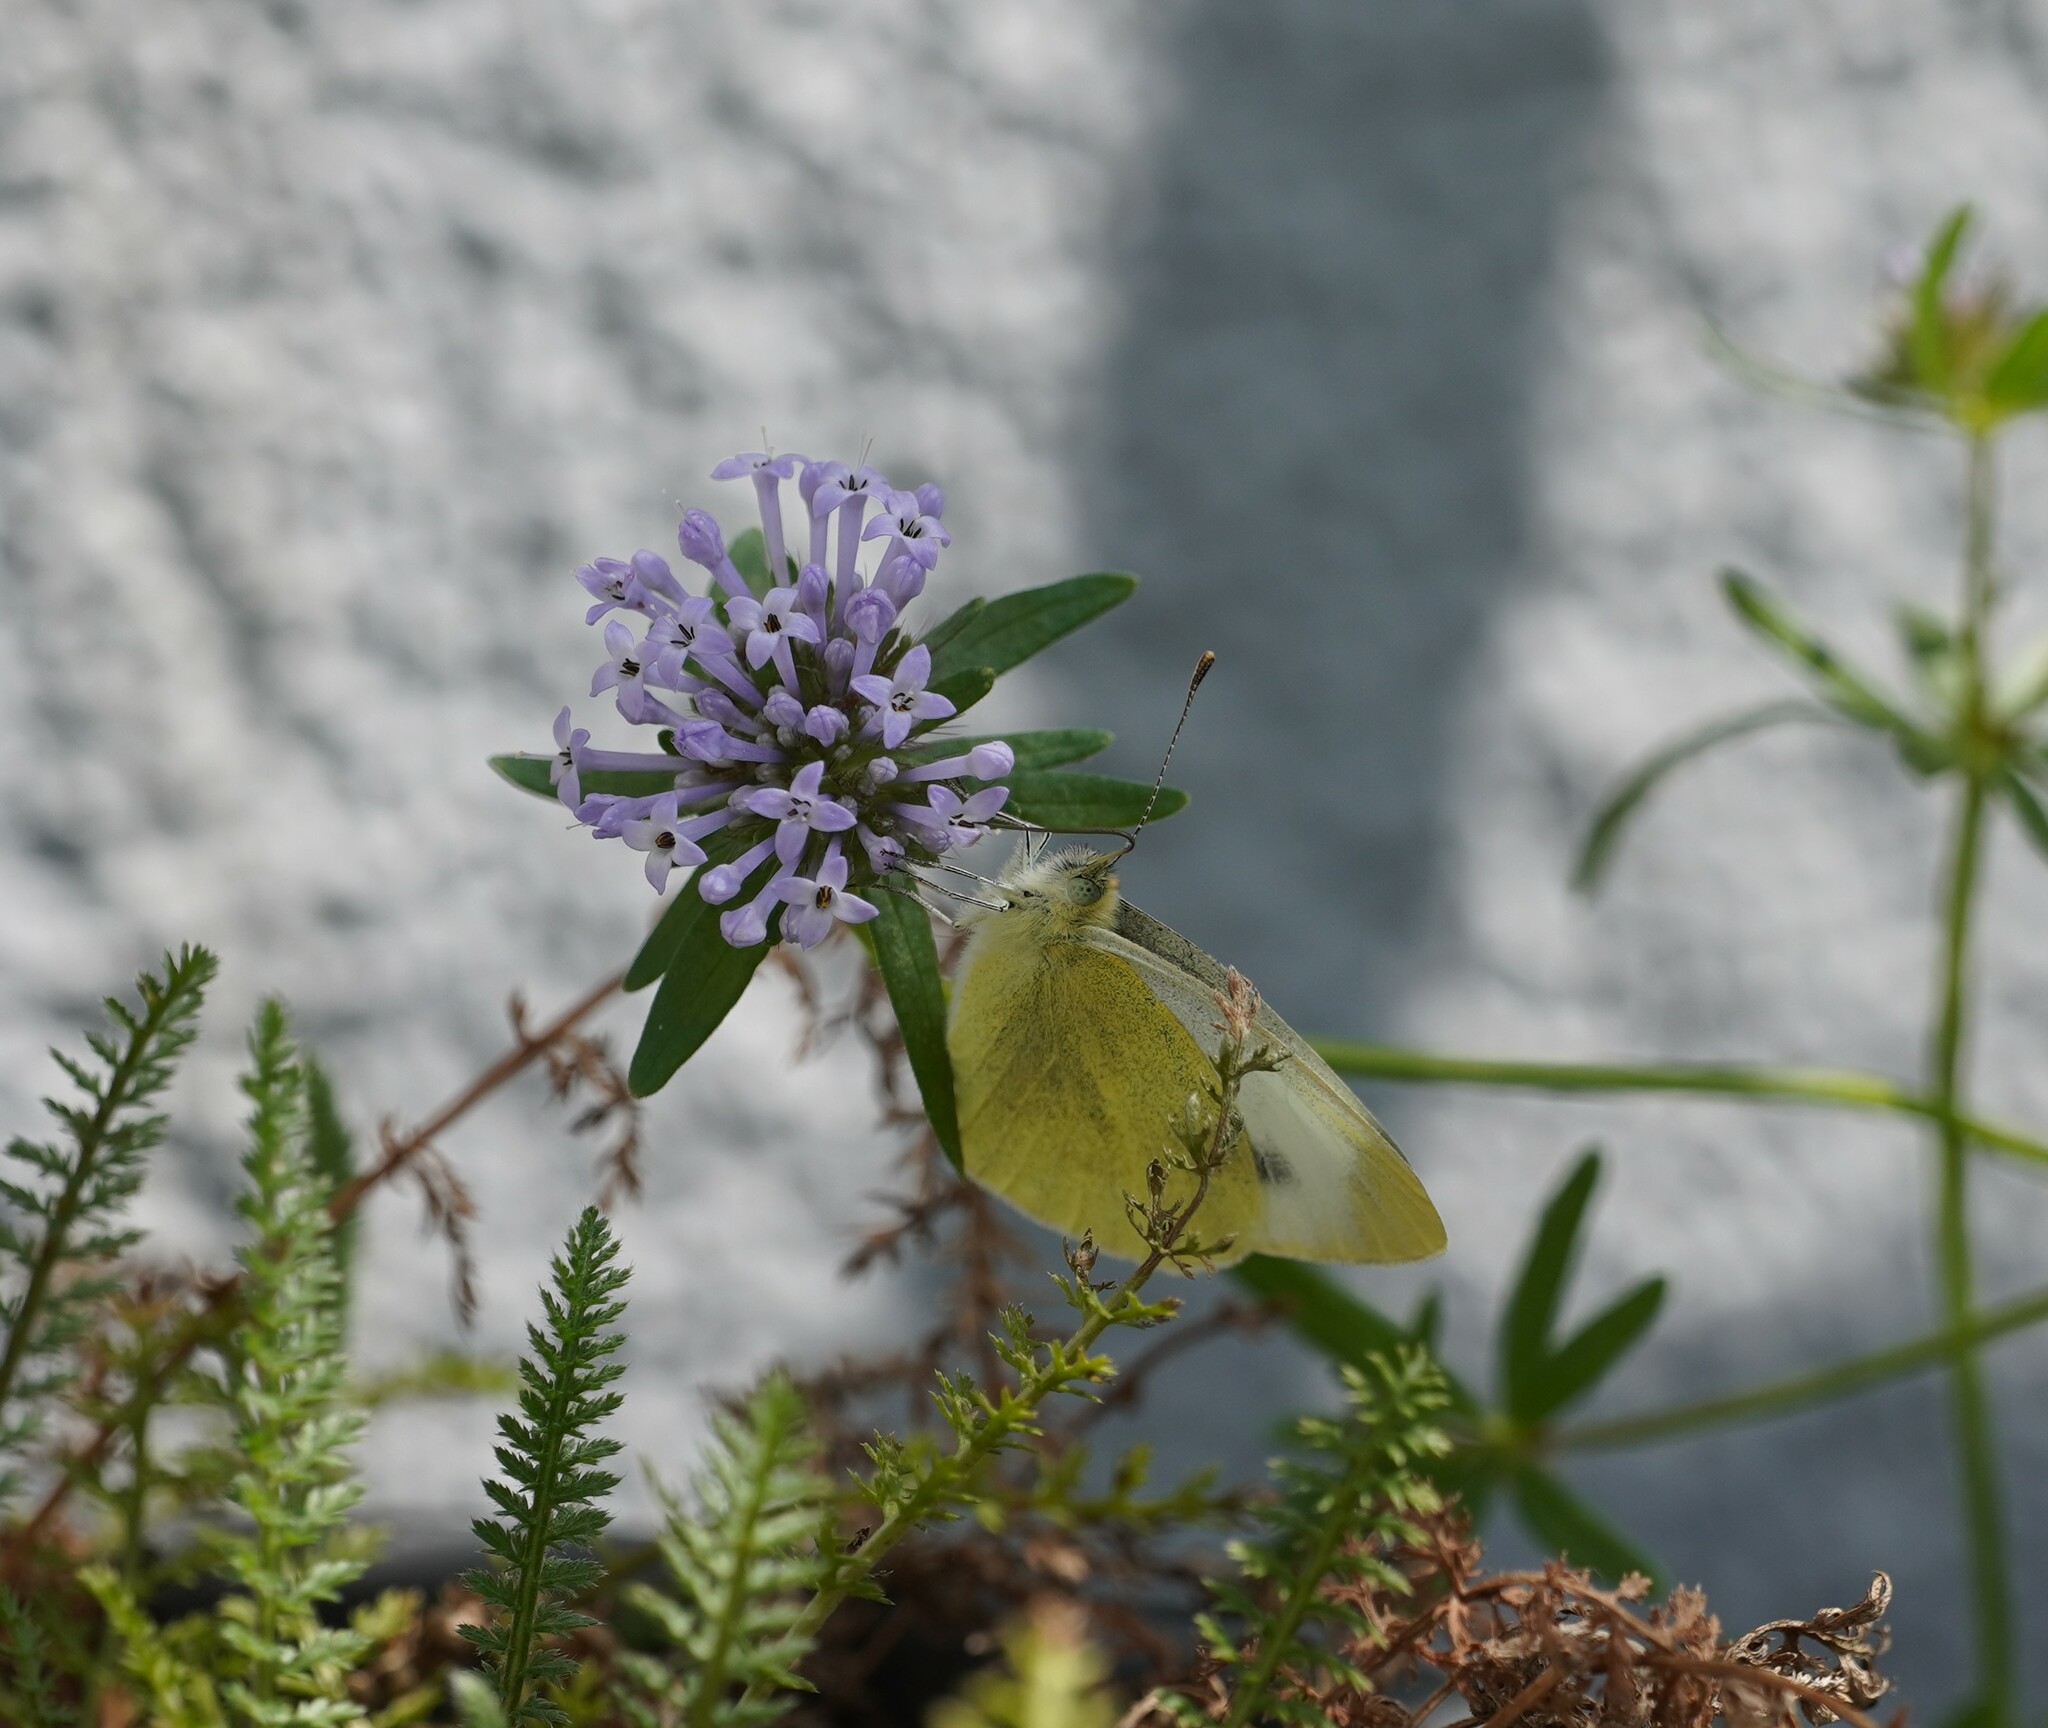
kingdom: Animalia
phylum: Arthropoda
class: Insecta
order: Lepidoptera
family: Pieridae
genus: Pieris
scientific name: Pieris mannii
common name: Southern small white
